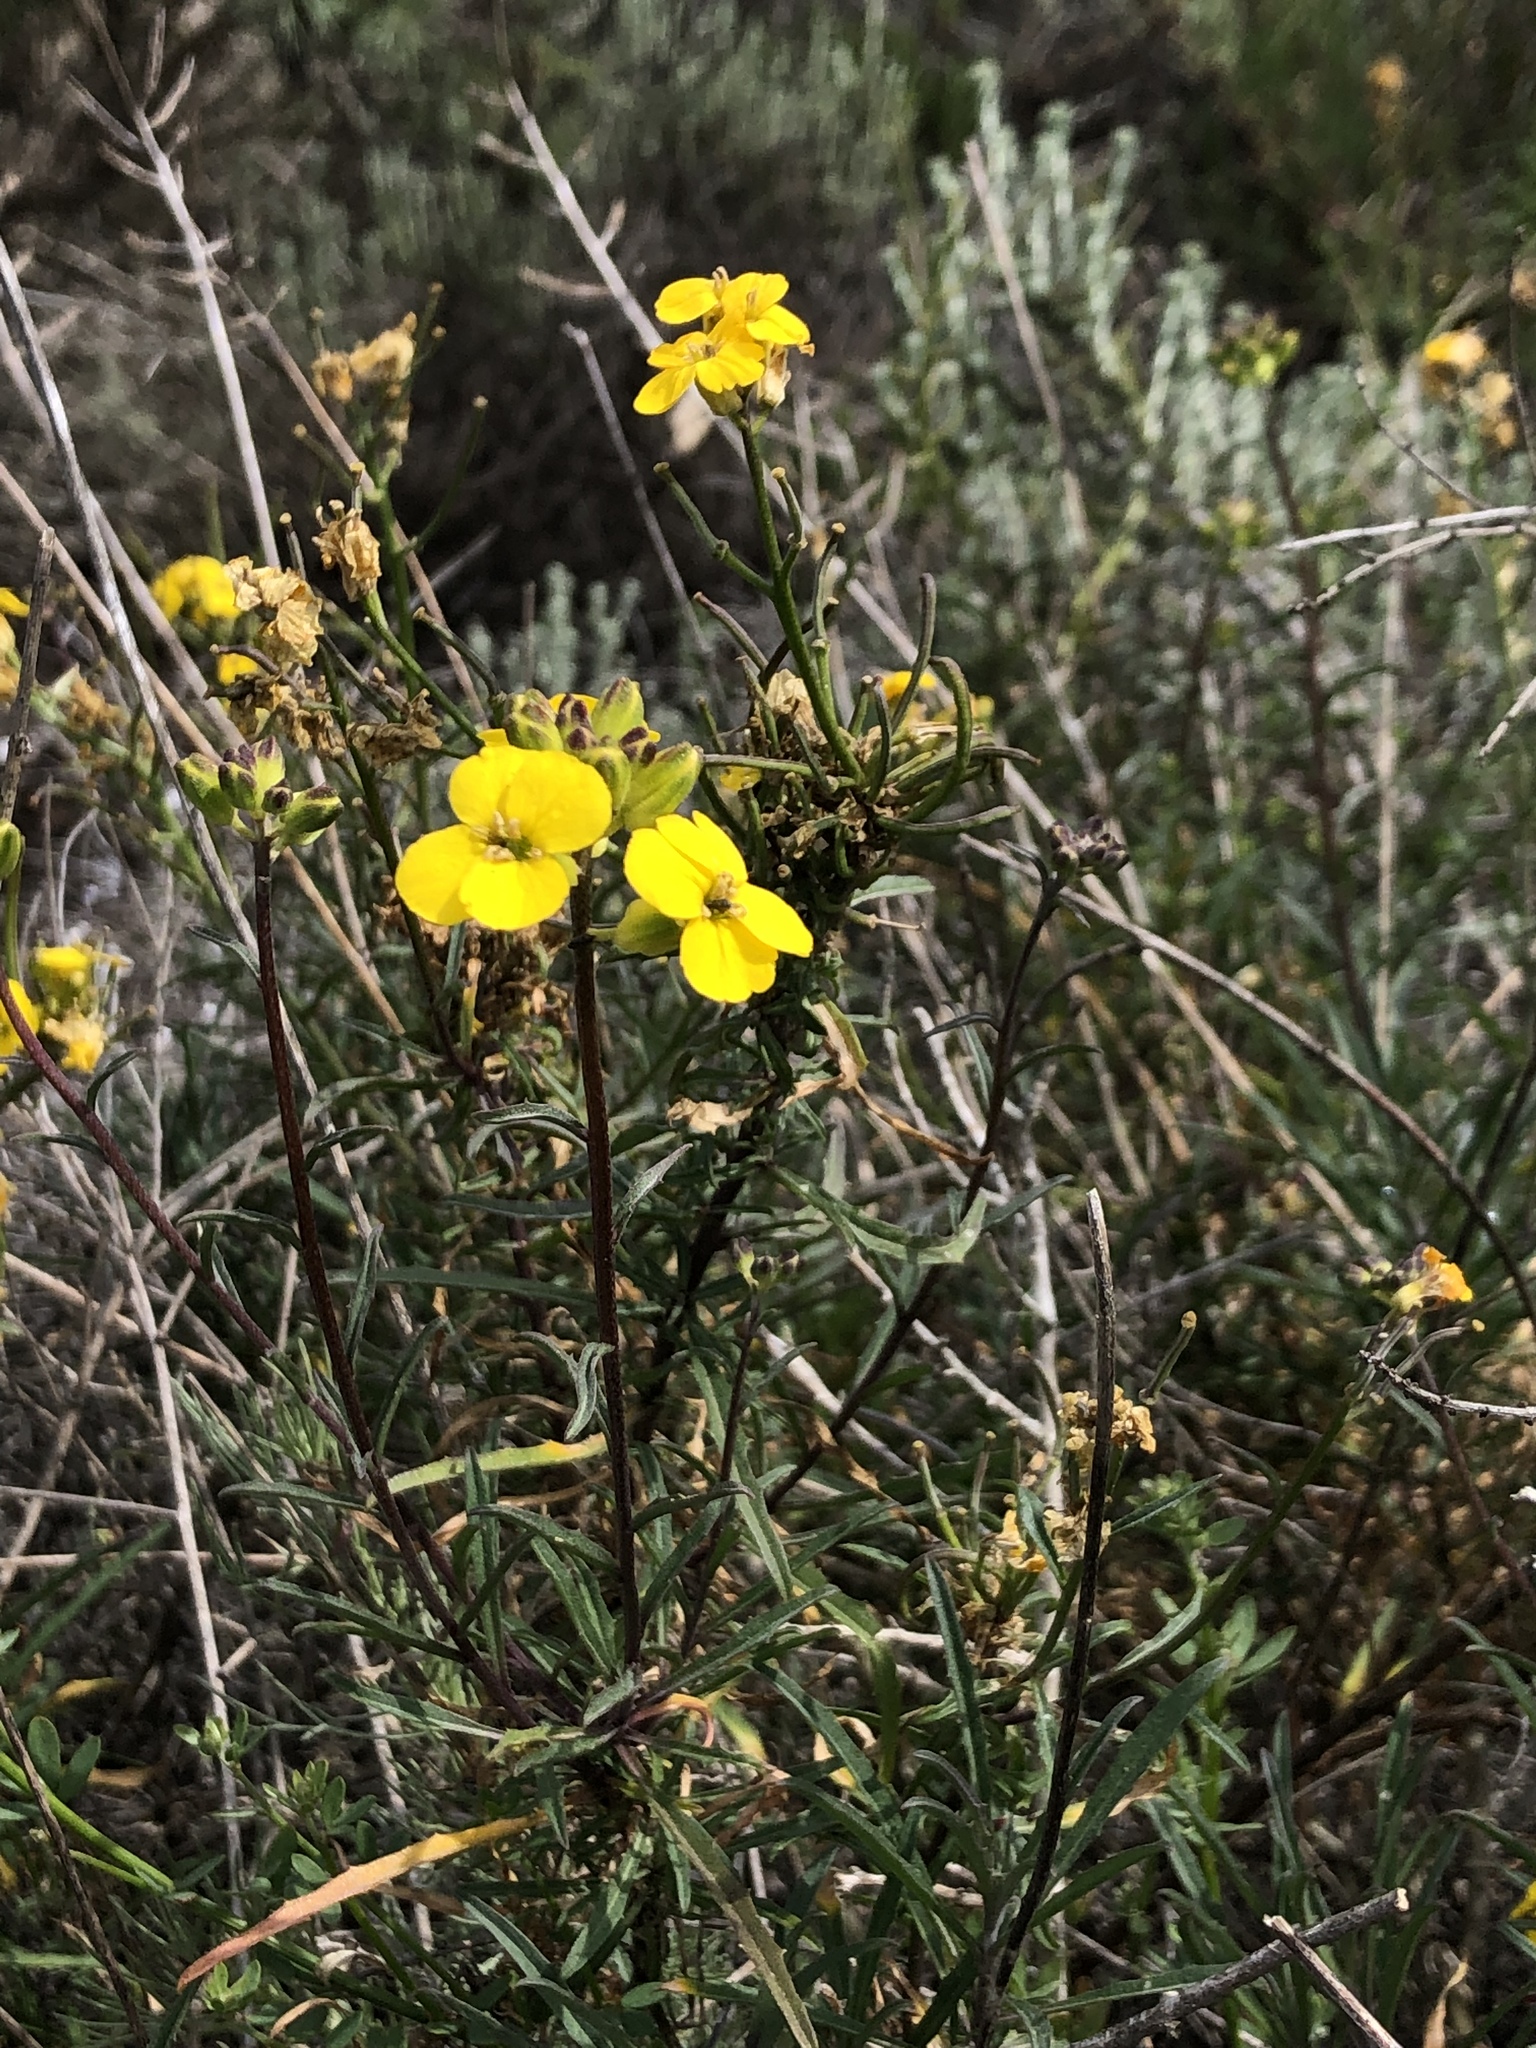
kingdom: Plantae
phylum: Tracheophyta
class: Magnoliopsida
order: Brassicales
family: Brassicaceae
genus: Erysimum
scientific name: Erysimum suffrutescens
